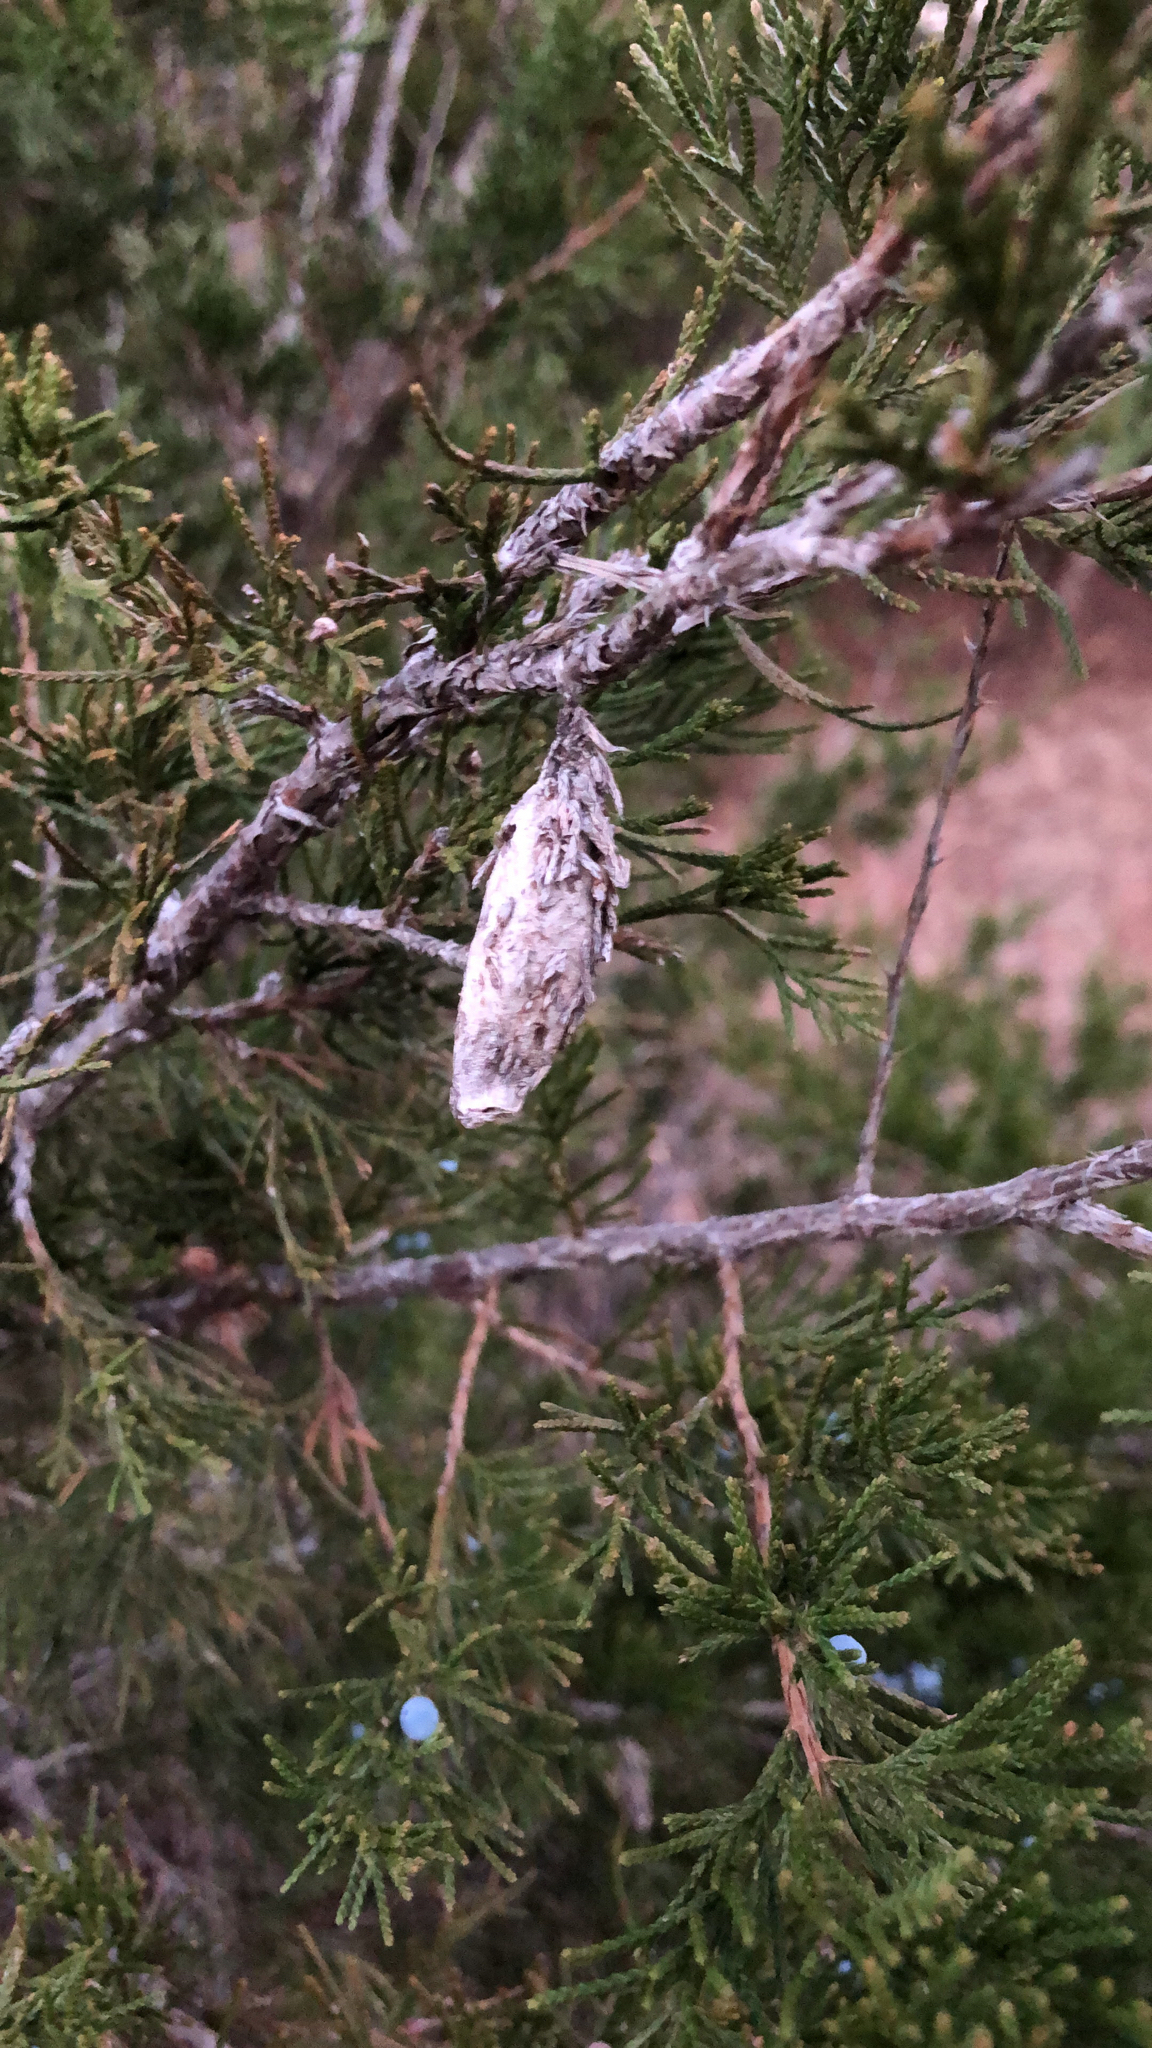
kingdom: Animalia
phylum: Arthropoda
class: Insecta
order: Lepidoptera
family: Psychidae
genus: Thyridopteryx
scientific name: Thyridopteryx ephemeraeformis
